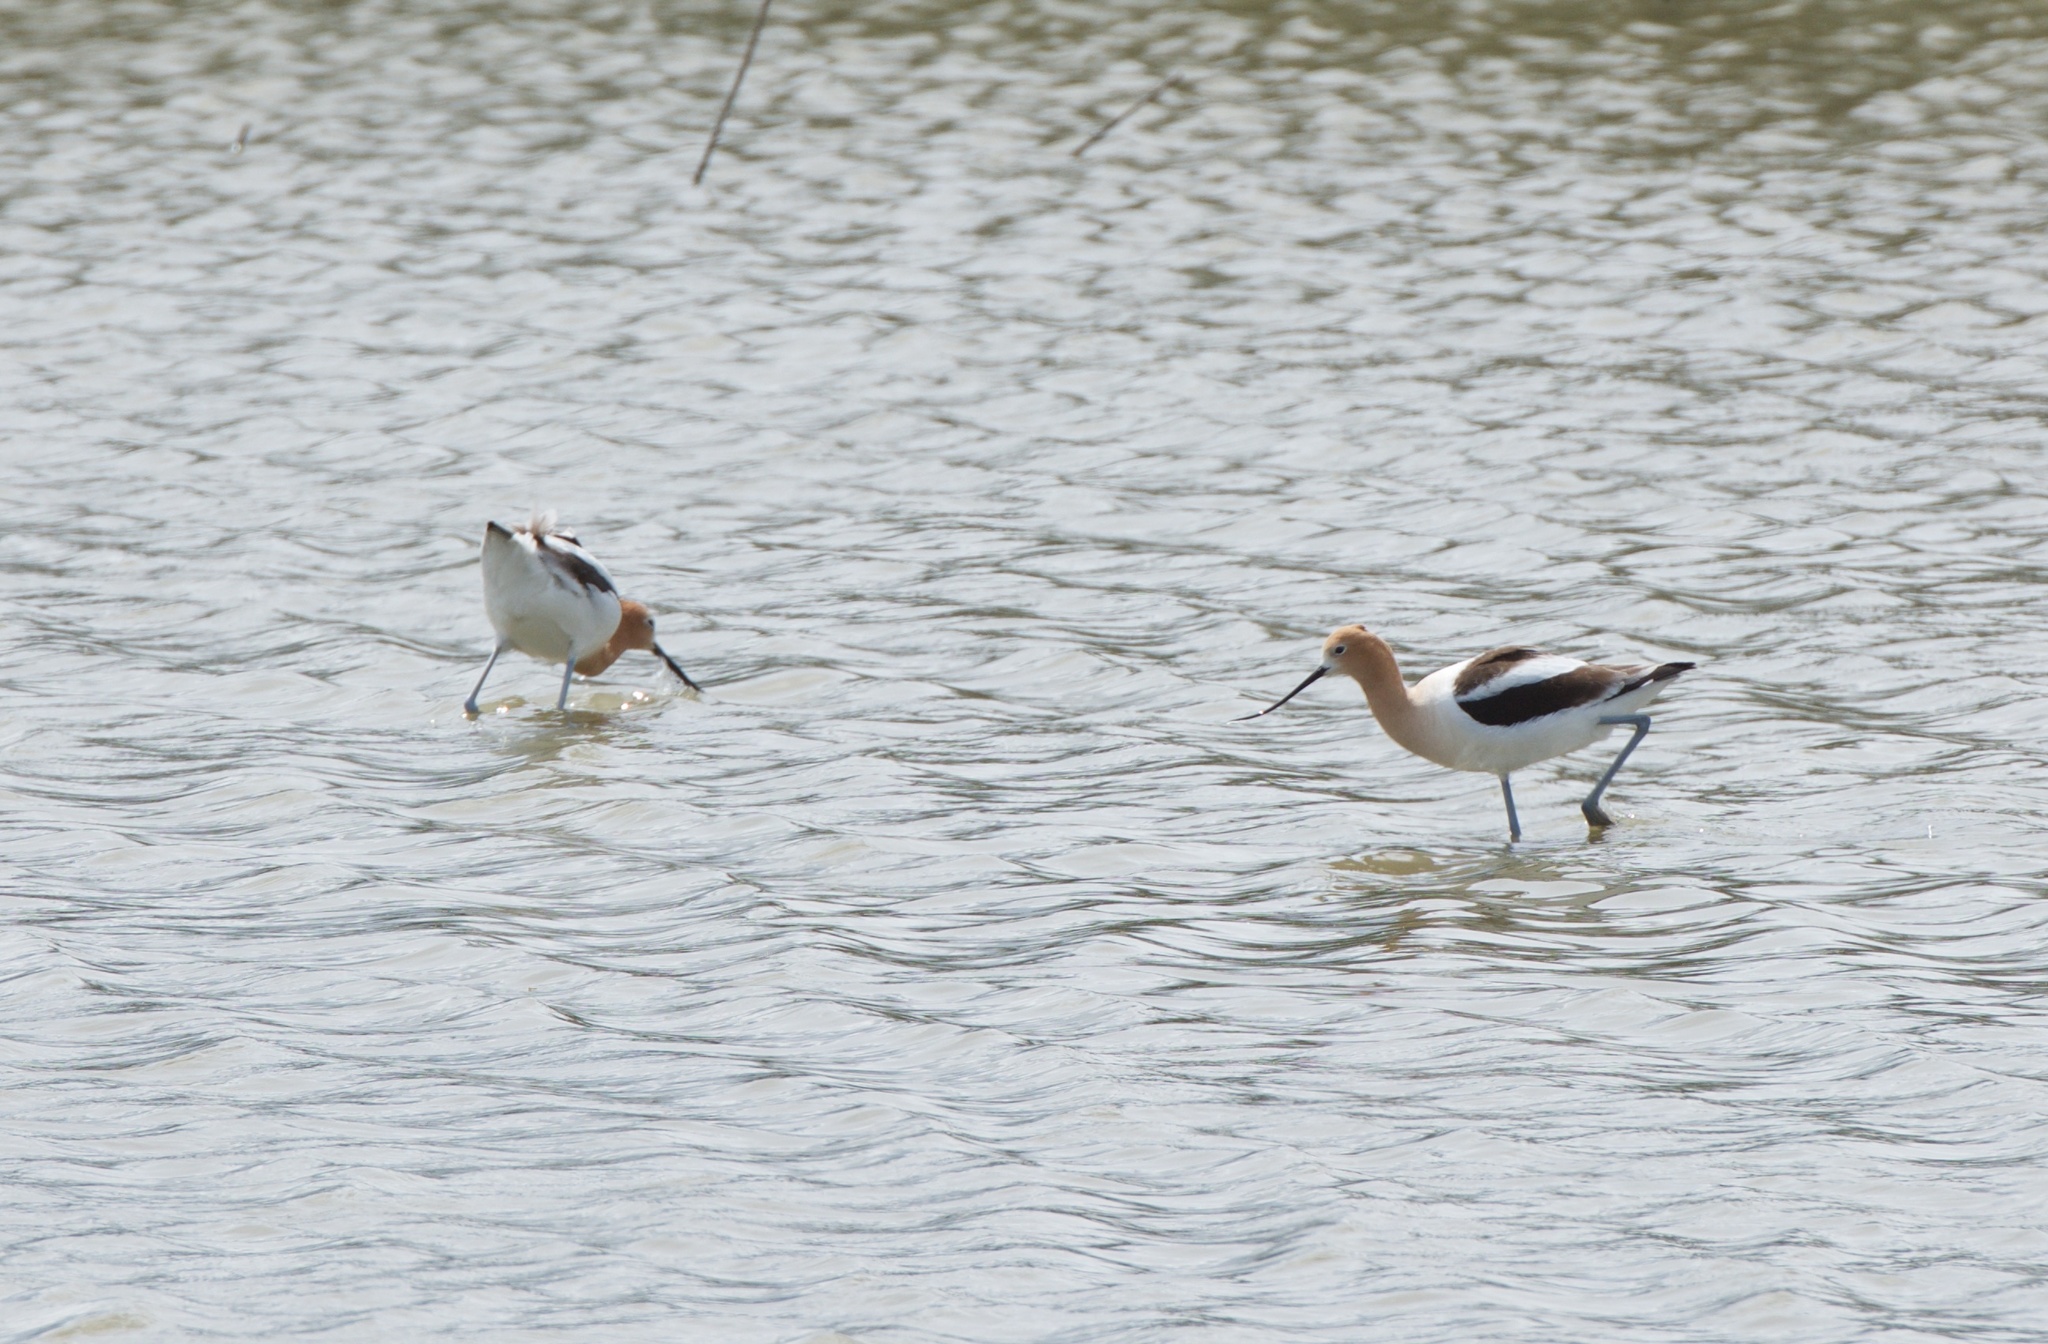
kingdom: Animalia
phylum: Chordata
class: Aves
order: Charadriiformes
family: Recurvirostridae
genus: Recurvirostra
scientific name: Recurvirostra americana
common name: American avocet
